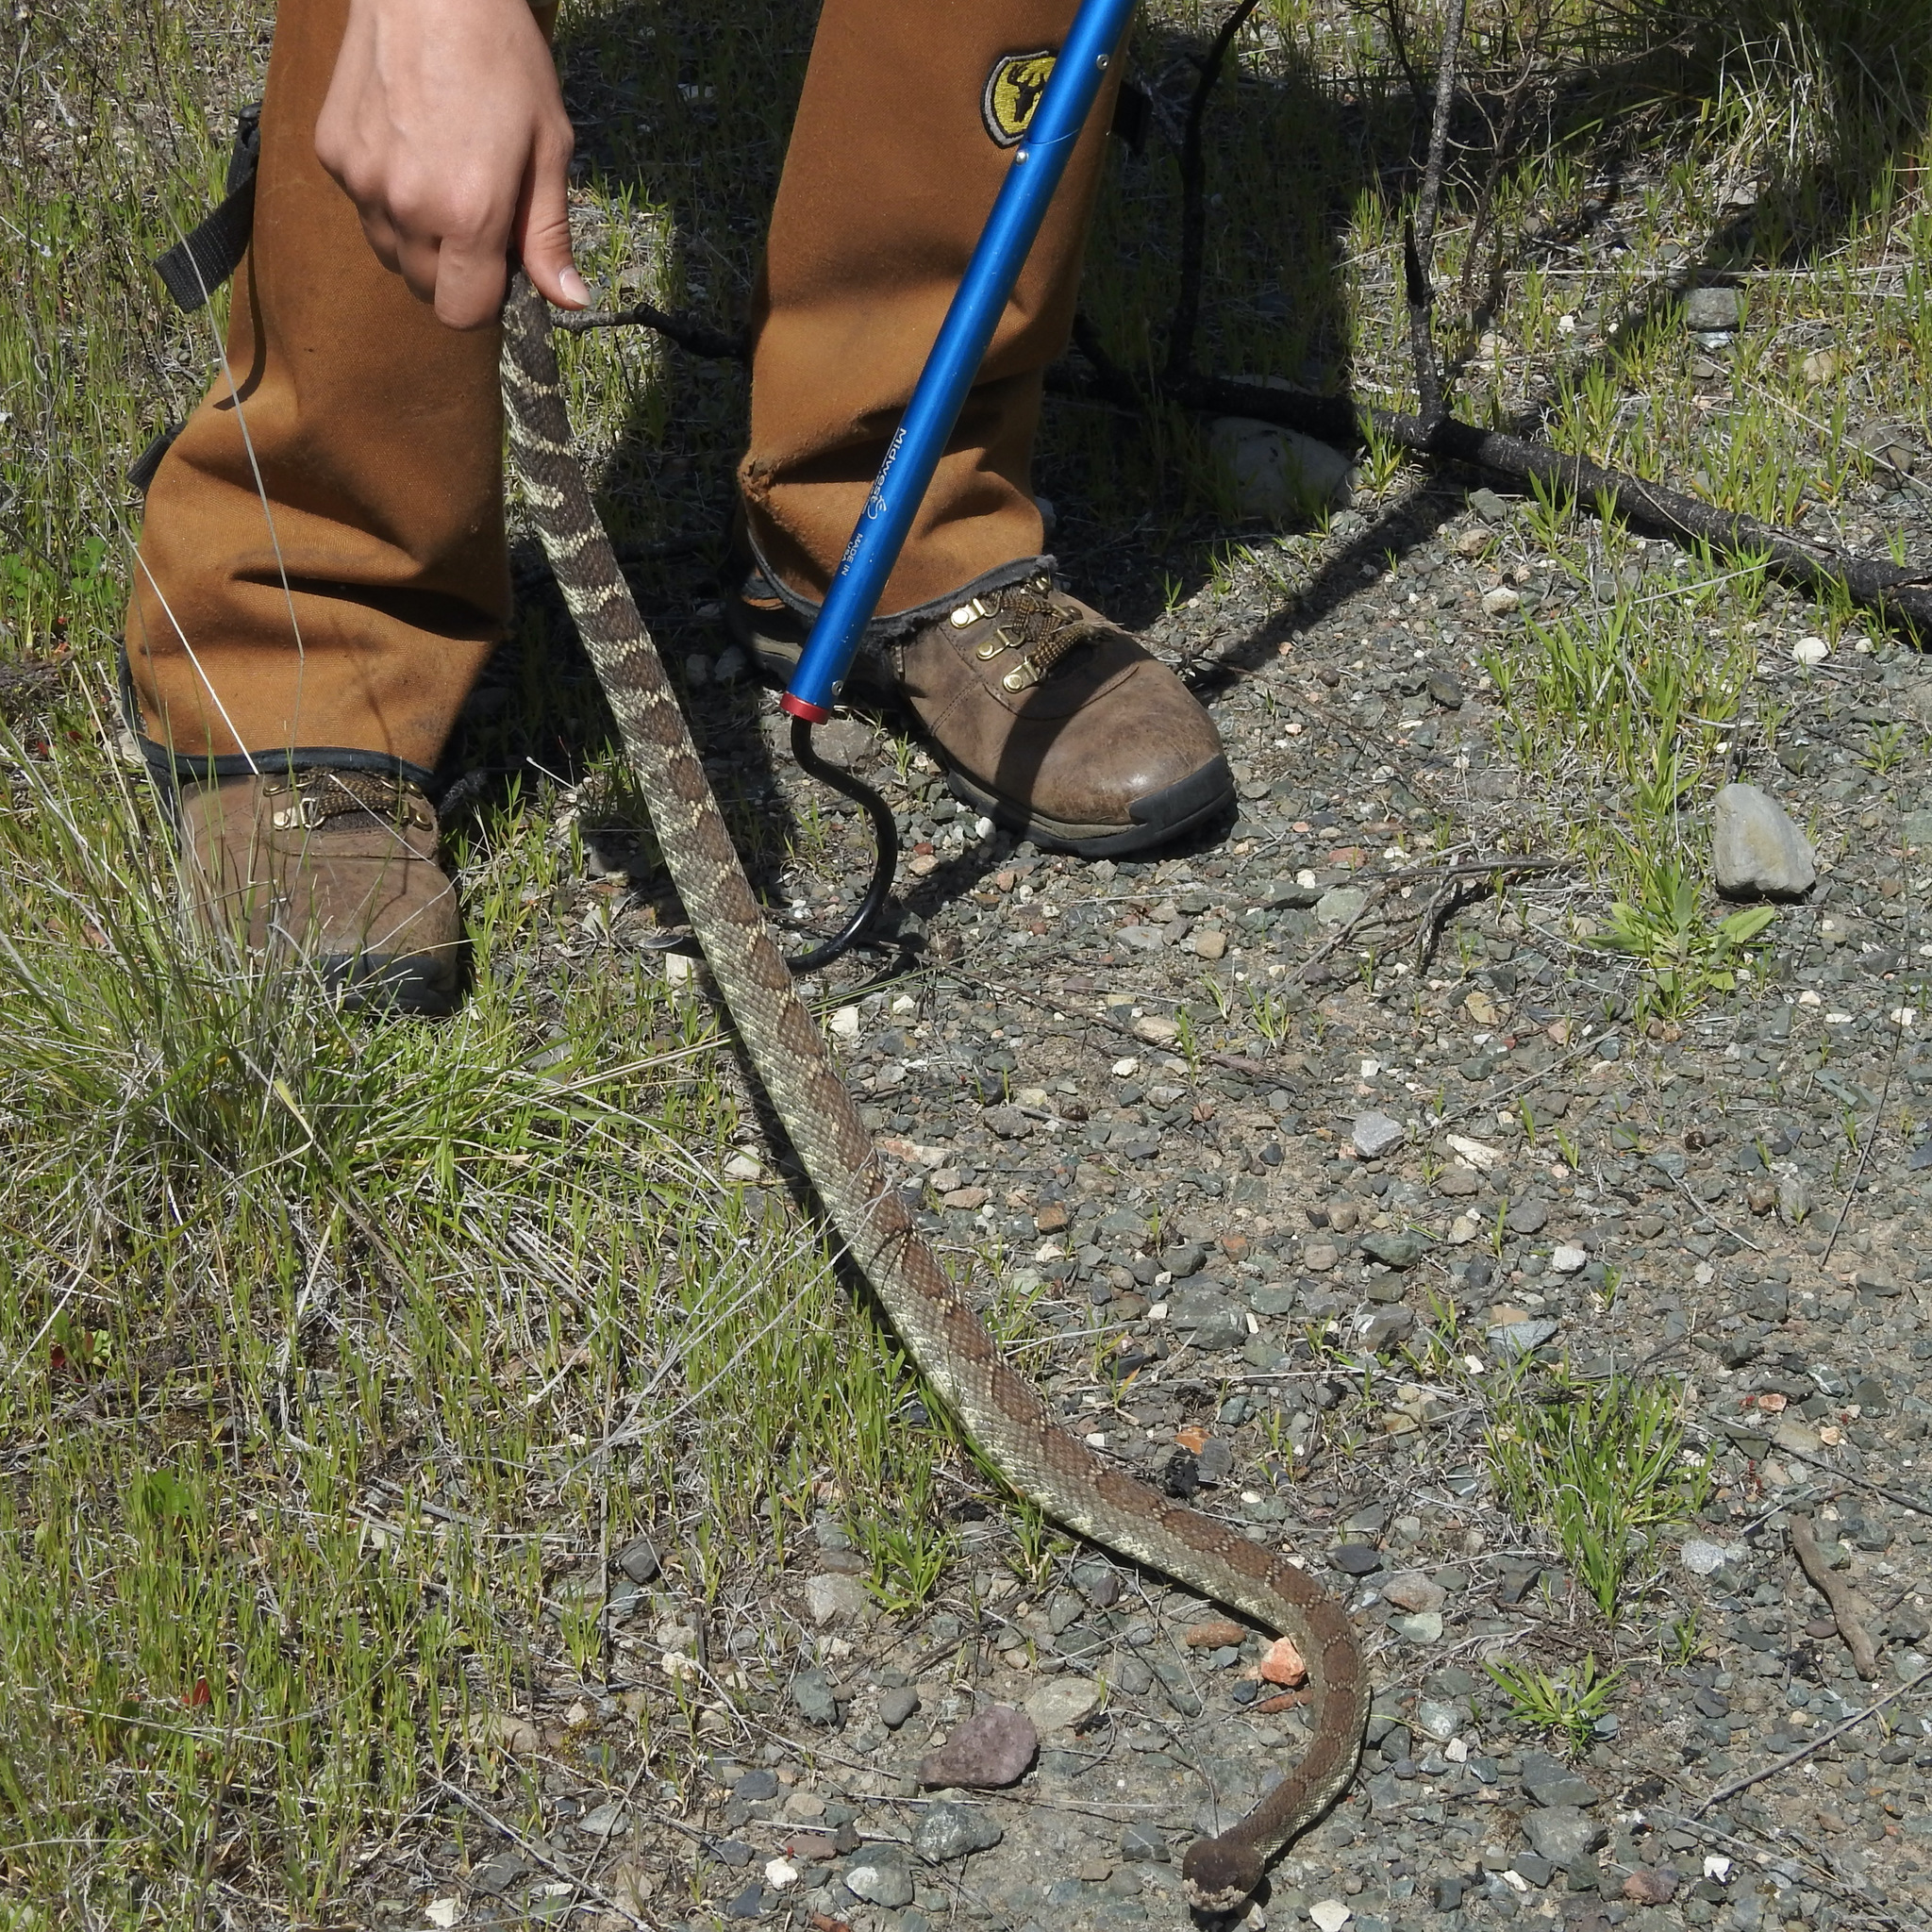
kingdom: Animalia
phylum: Chordata
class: Squamata
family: Viperidae
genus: Crotalus
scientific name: Crotalus oreganus
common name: Abyssus
